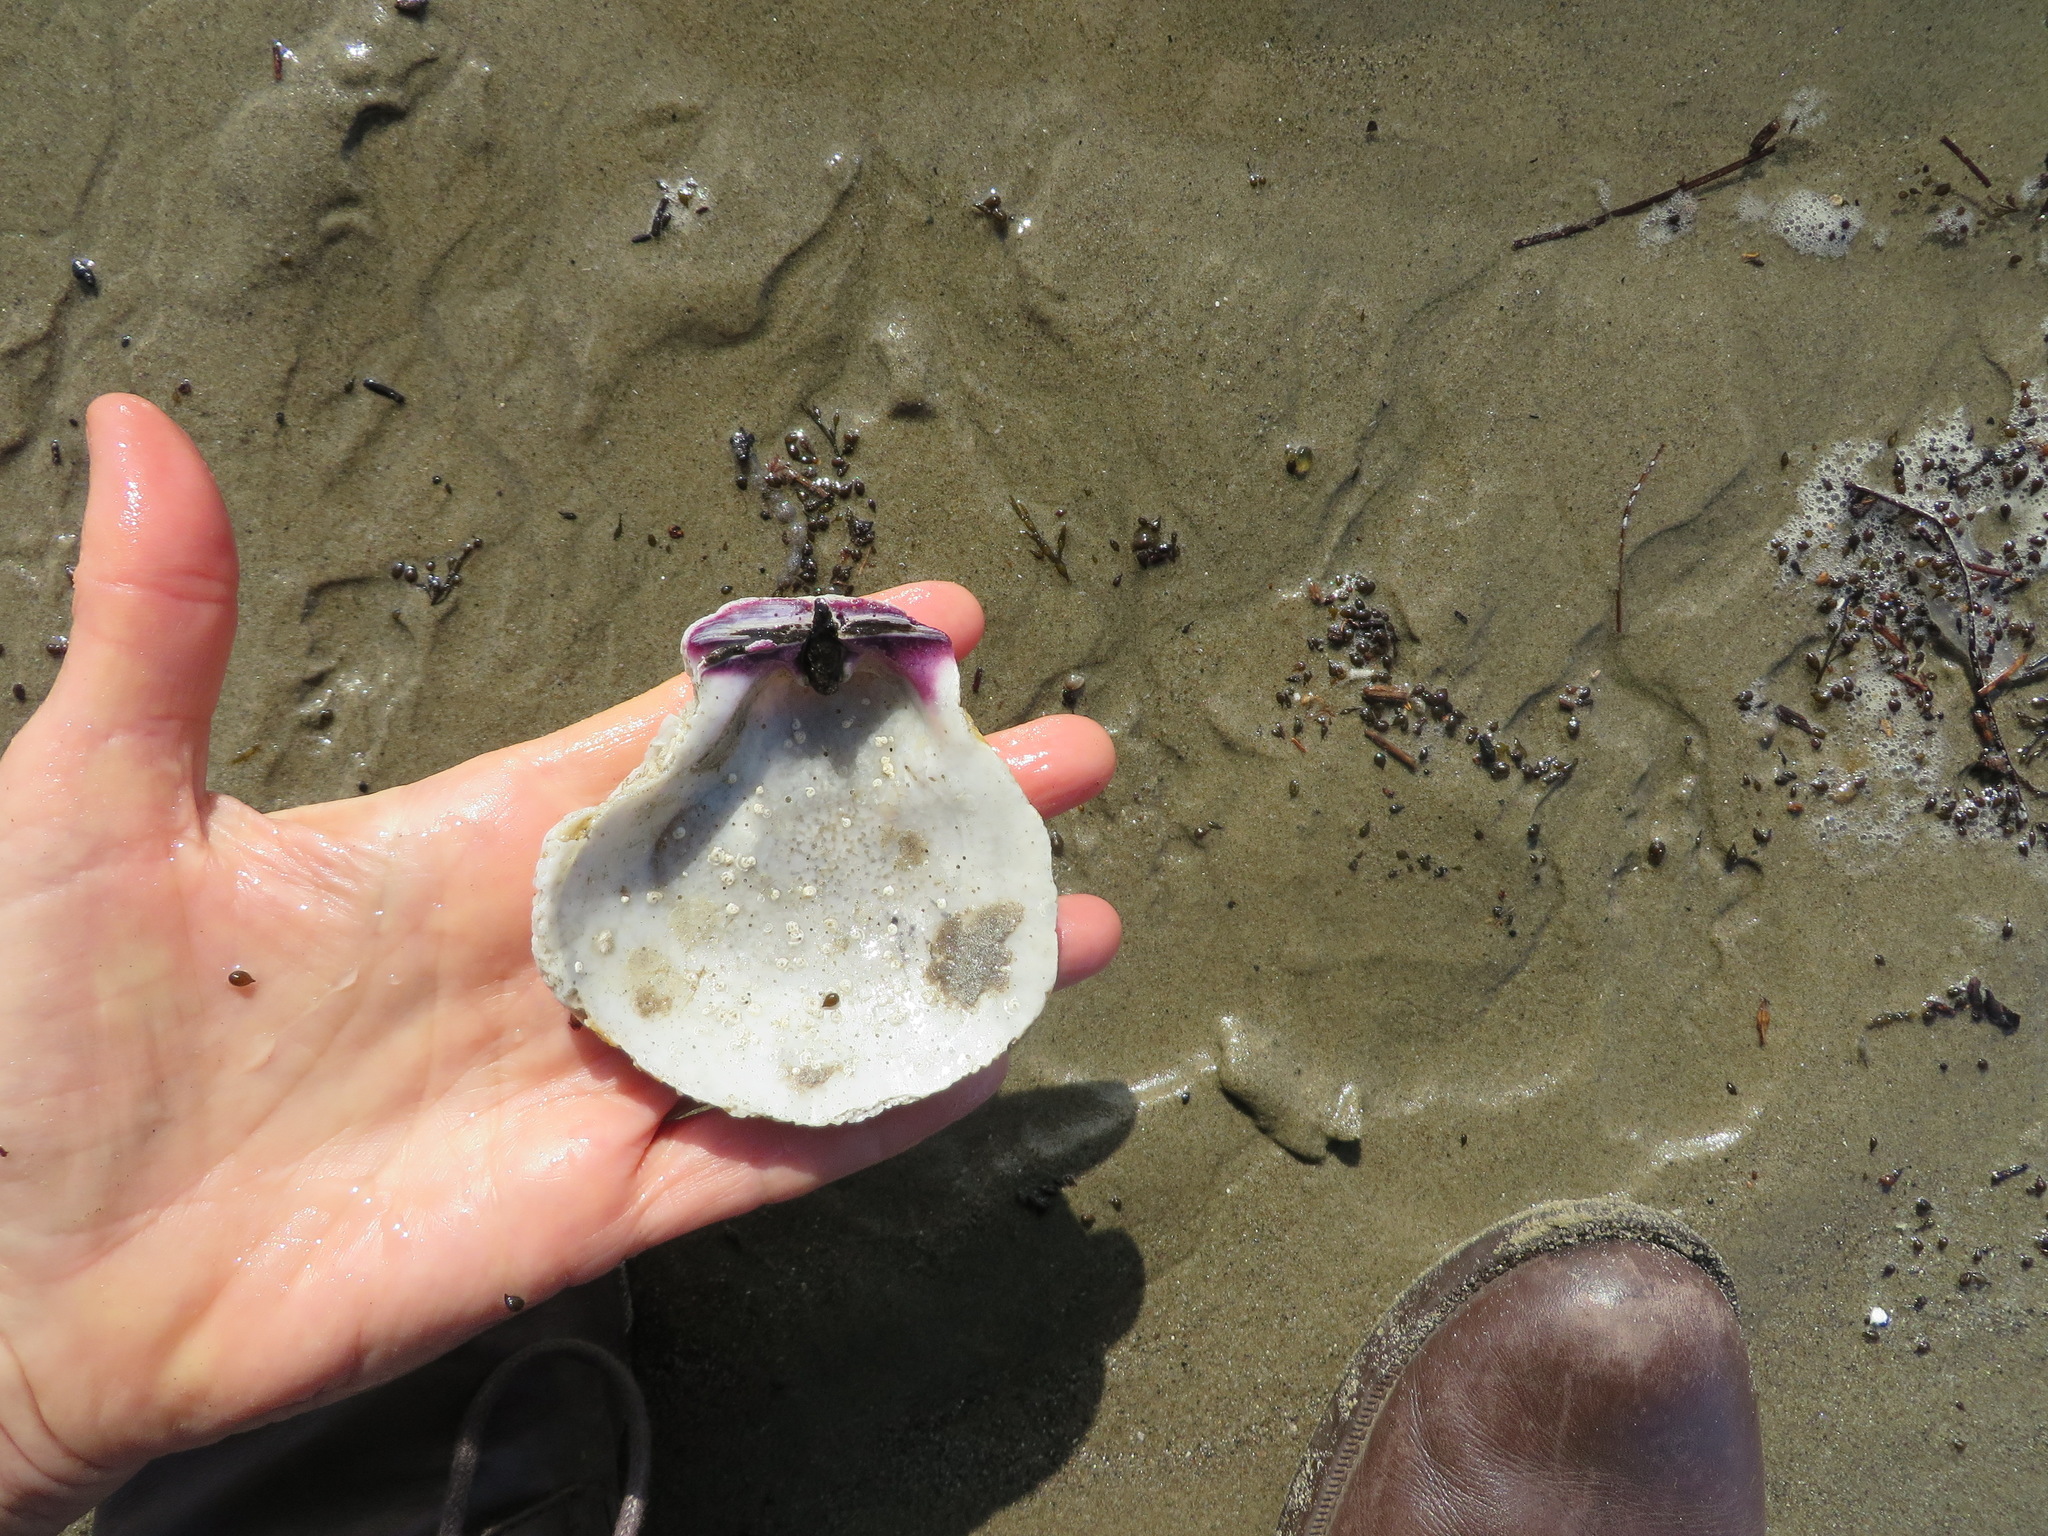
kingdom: Animalia
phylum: Mollusca
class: Bivalvia
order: Pectinida
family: Pectinidae
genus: Crassadoma
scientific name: Crassadoma gigantea
